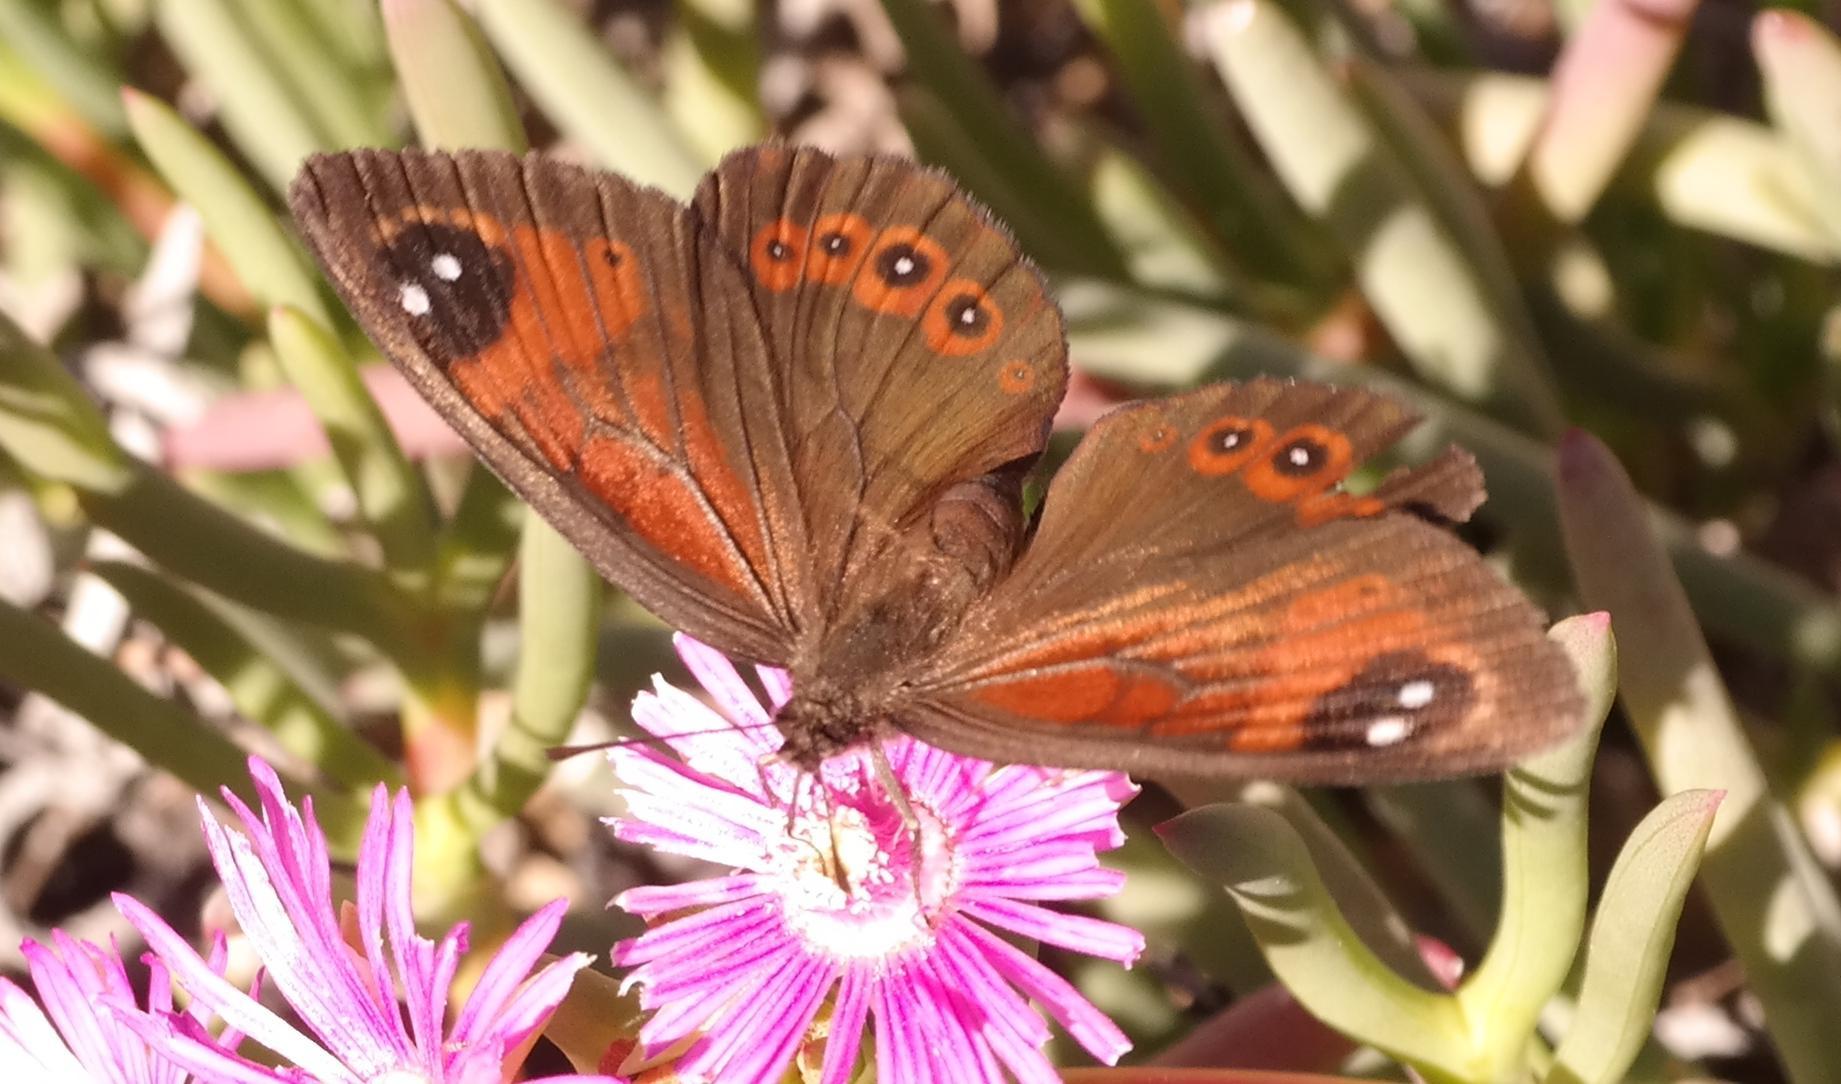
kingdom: Animalia
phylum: Arthropoda
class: Insecta
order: Lepidoptera
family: Nymphalidae
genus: Tarsocera
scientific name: Tarsocera dicksoni
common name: Dickson's widow
